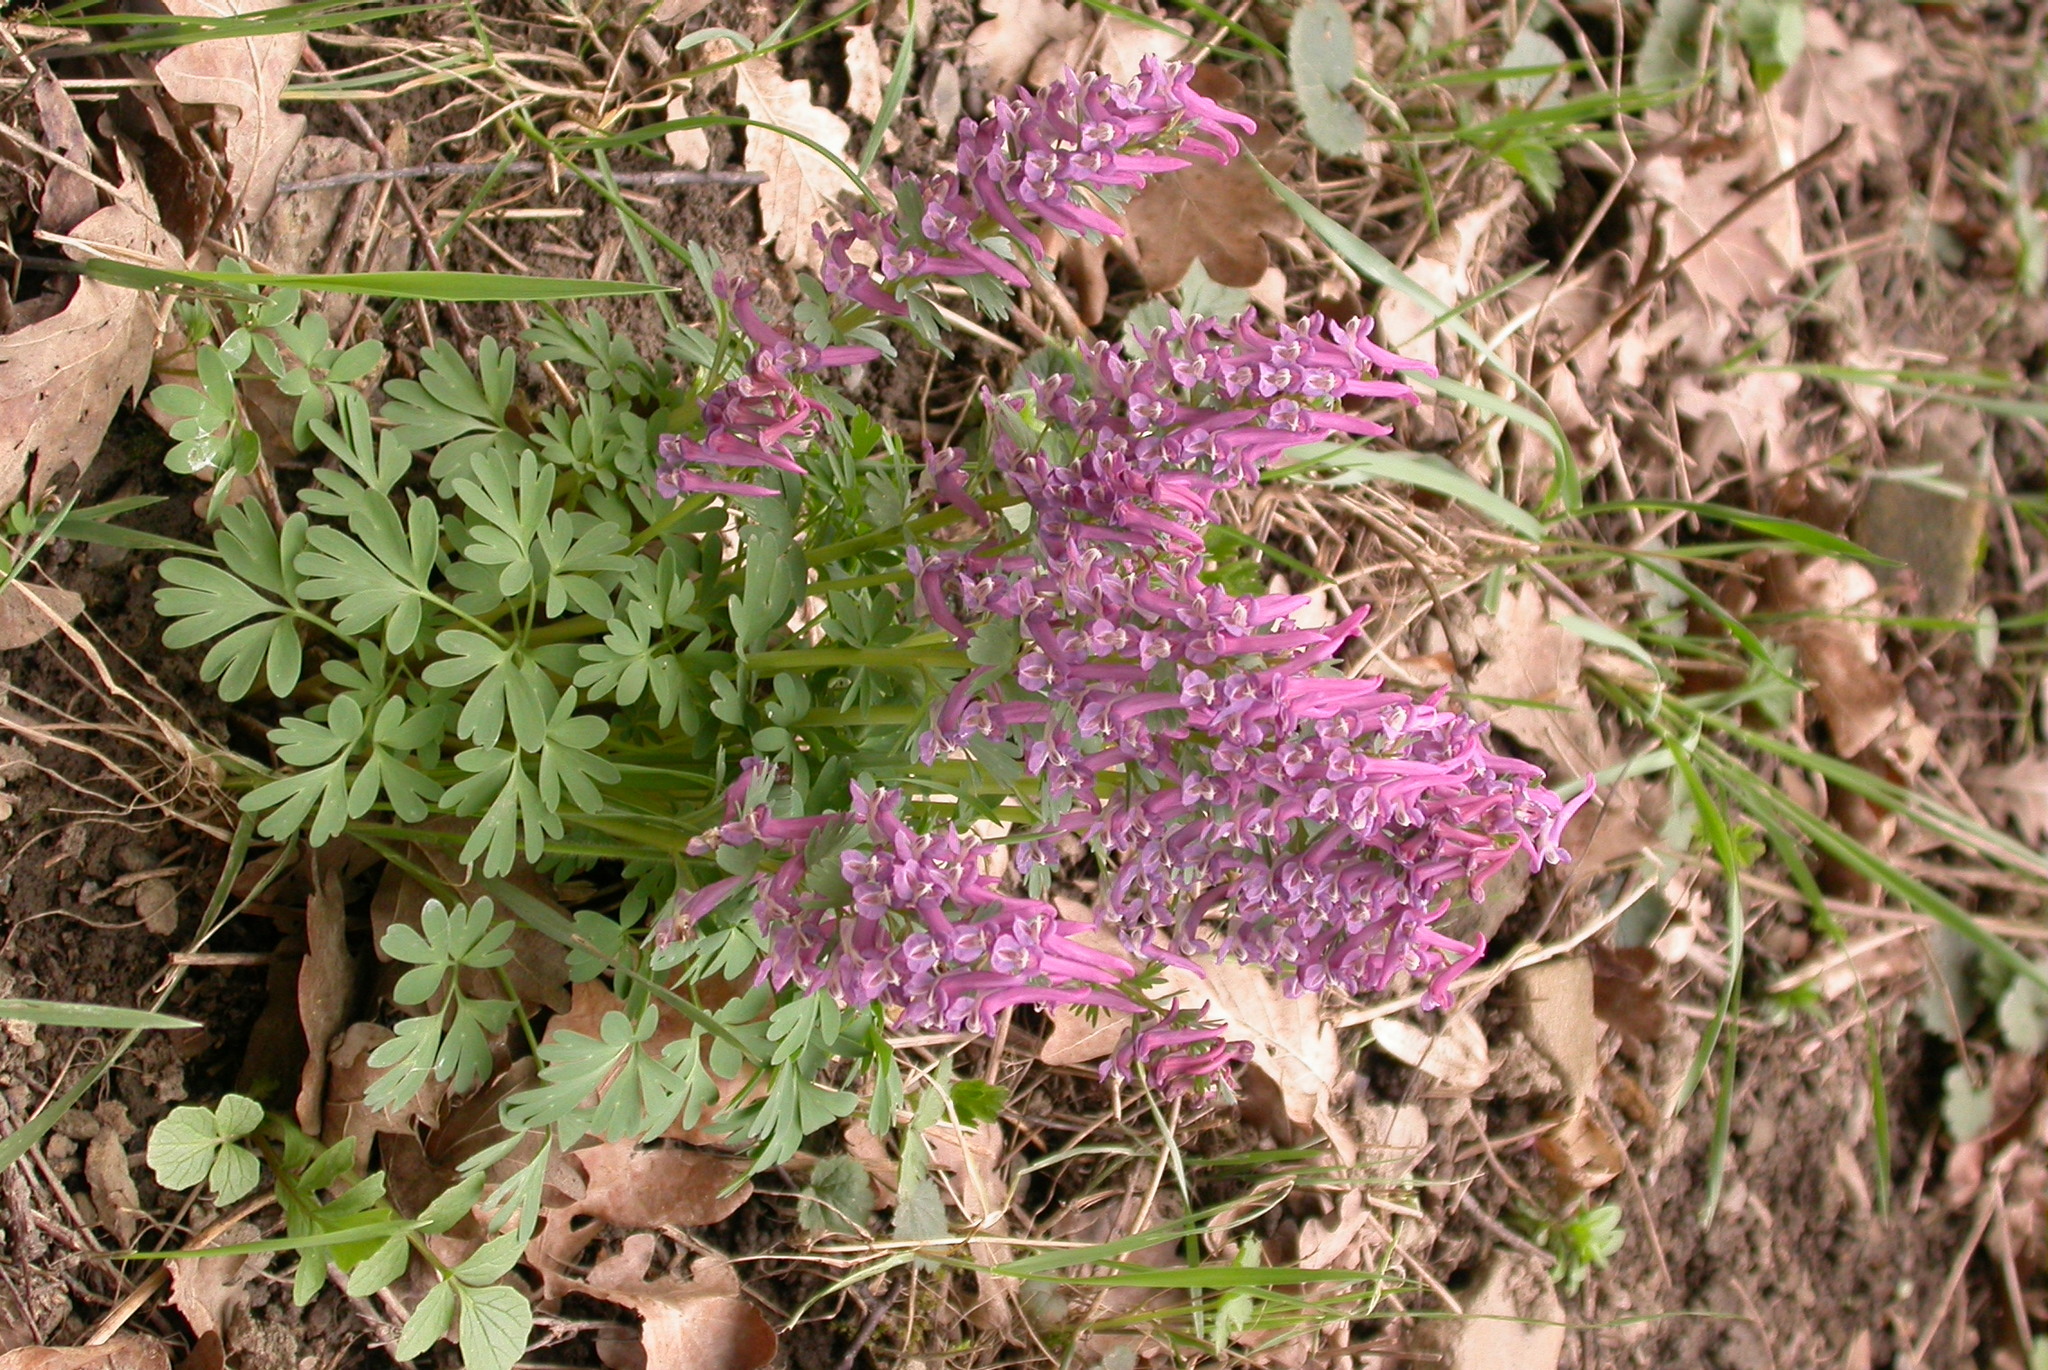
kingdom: Plantae
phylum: Tracheophyta
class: Magnoliopsida
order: Ranunculales
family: Papaveraceae
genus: Corydalis
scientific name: Corydalis solida
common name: Bird-in-a-bush
